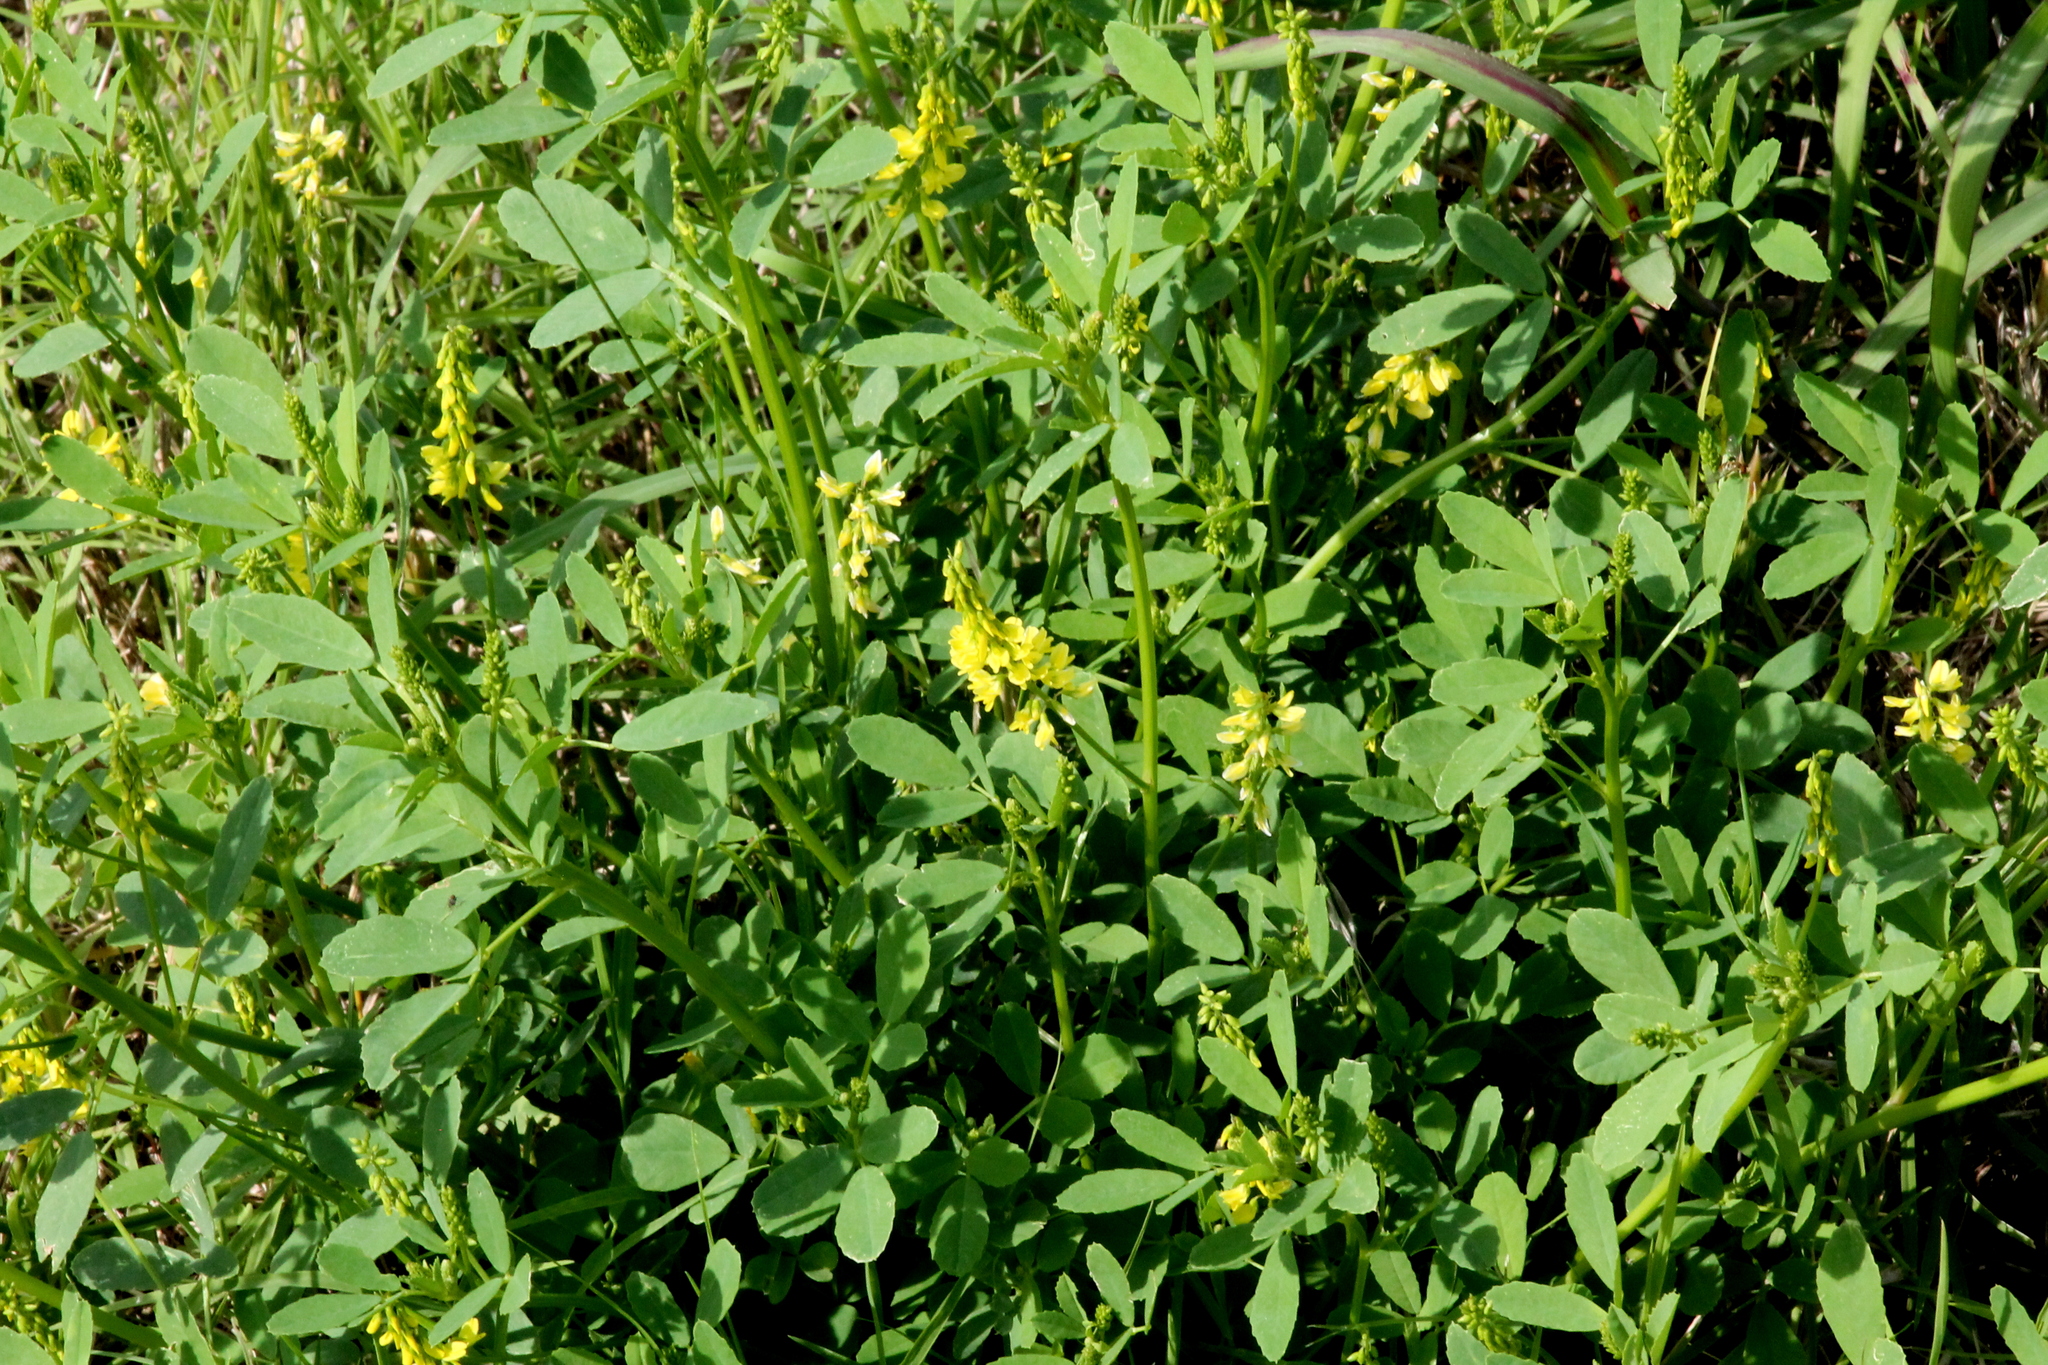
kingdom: Plantae
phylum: Tracheophyta
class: Magnoliopsida
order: Fabales
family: Fabaceae
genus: Melilotus
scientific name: Melilotus officinalis
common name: Sweetclover
